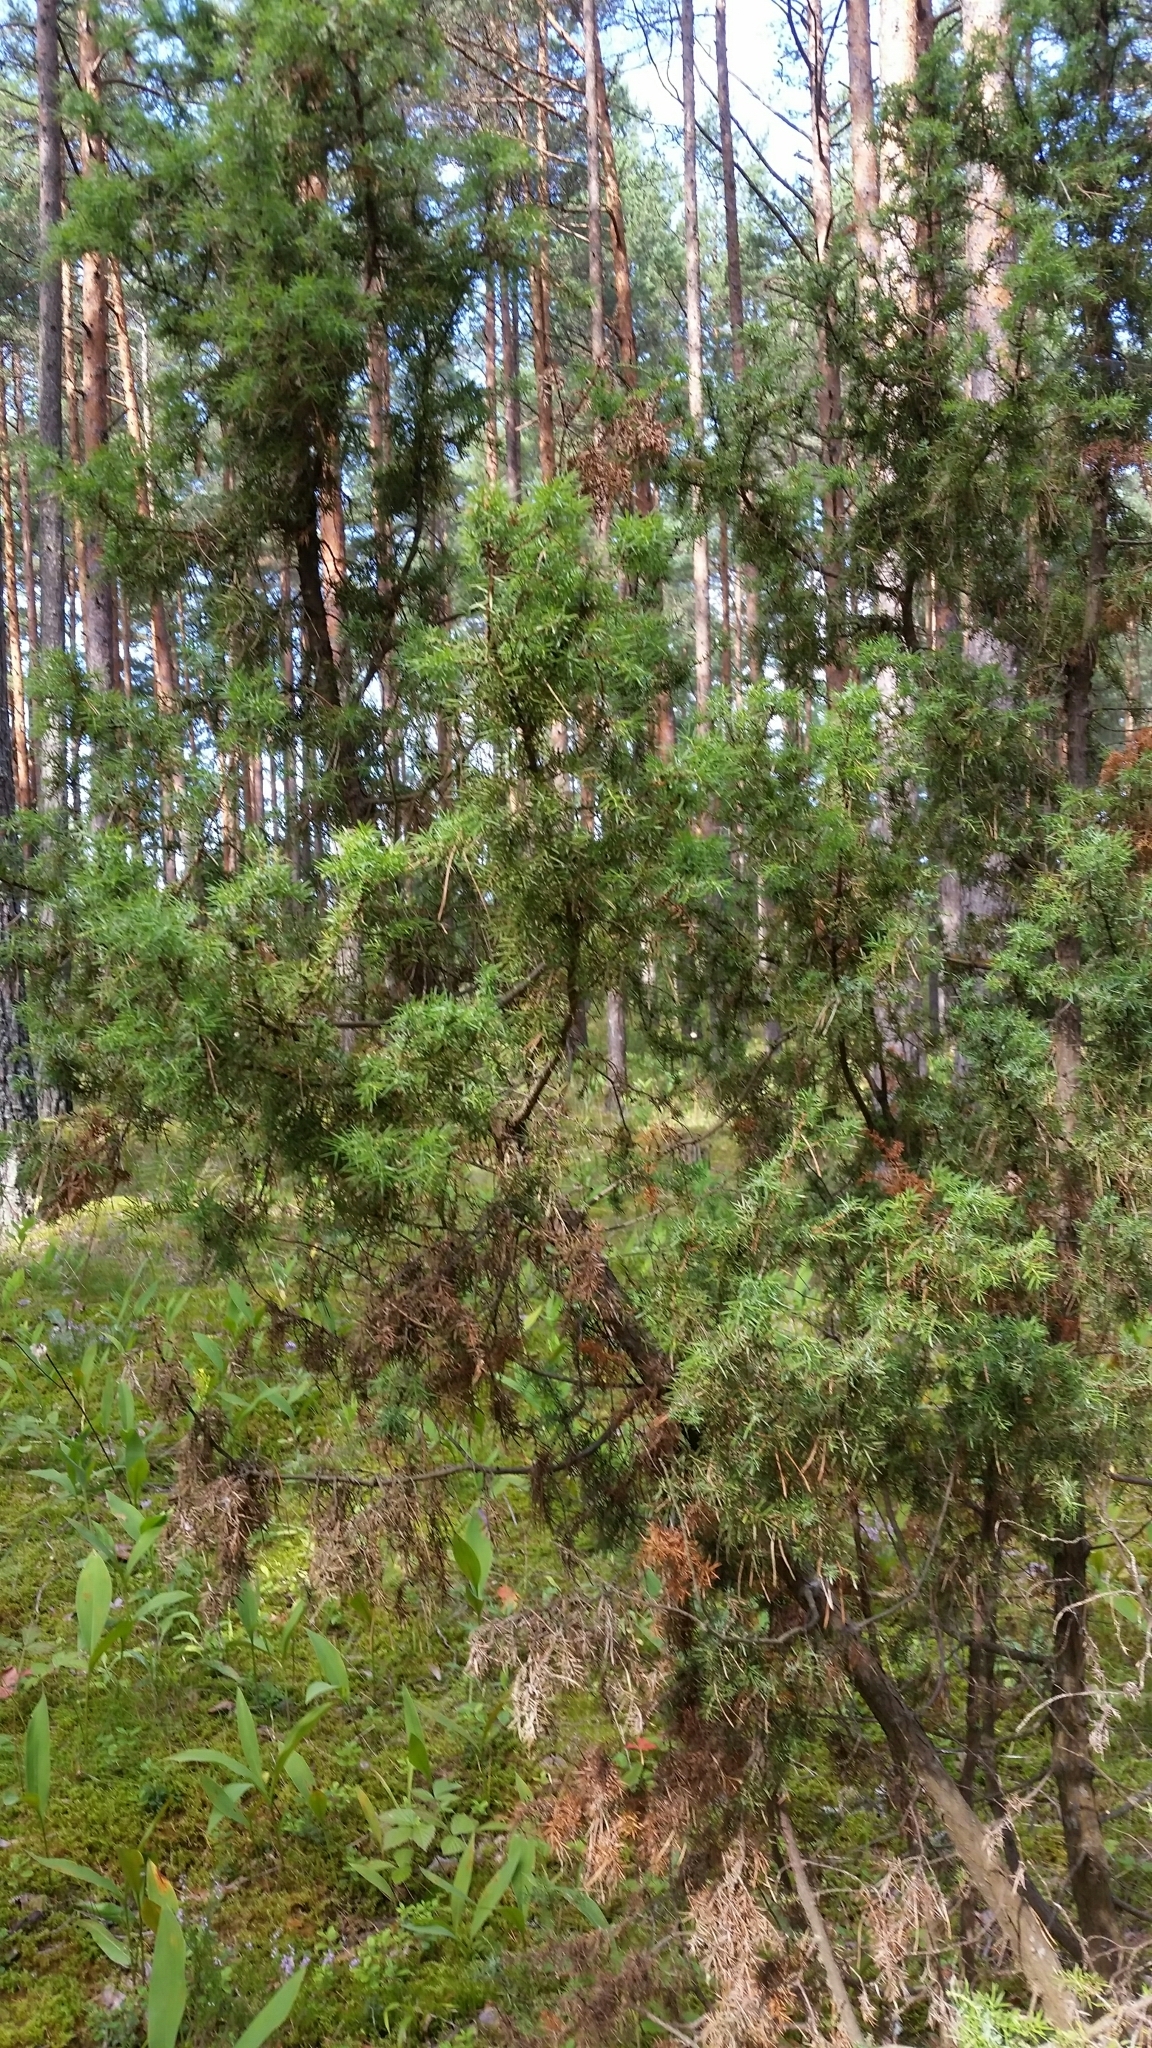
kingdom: Plantae
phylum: Tracheophyta
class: Pinopsida
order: Pinales
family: Cupressaceae
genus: Juniperus
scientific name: Juniperus communis
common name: Common juniper
